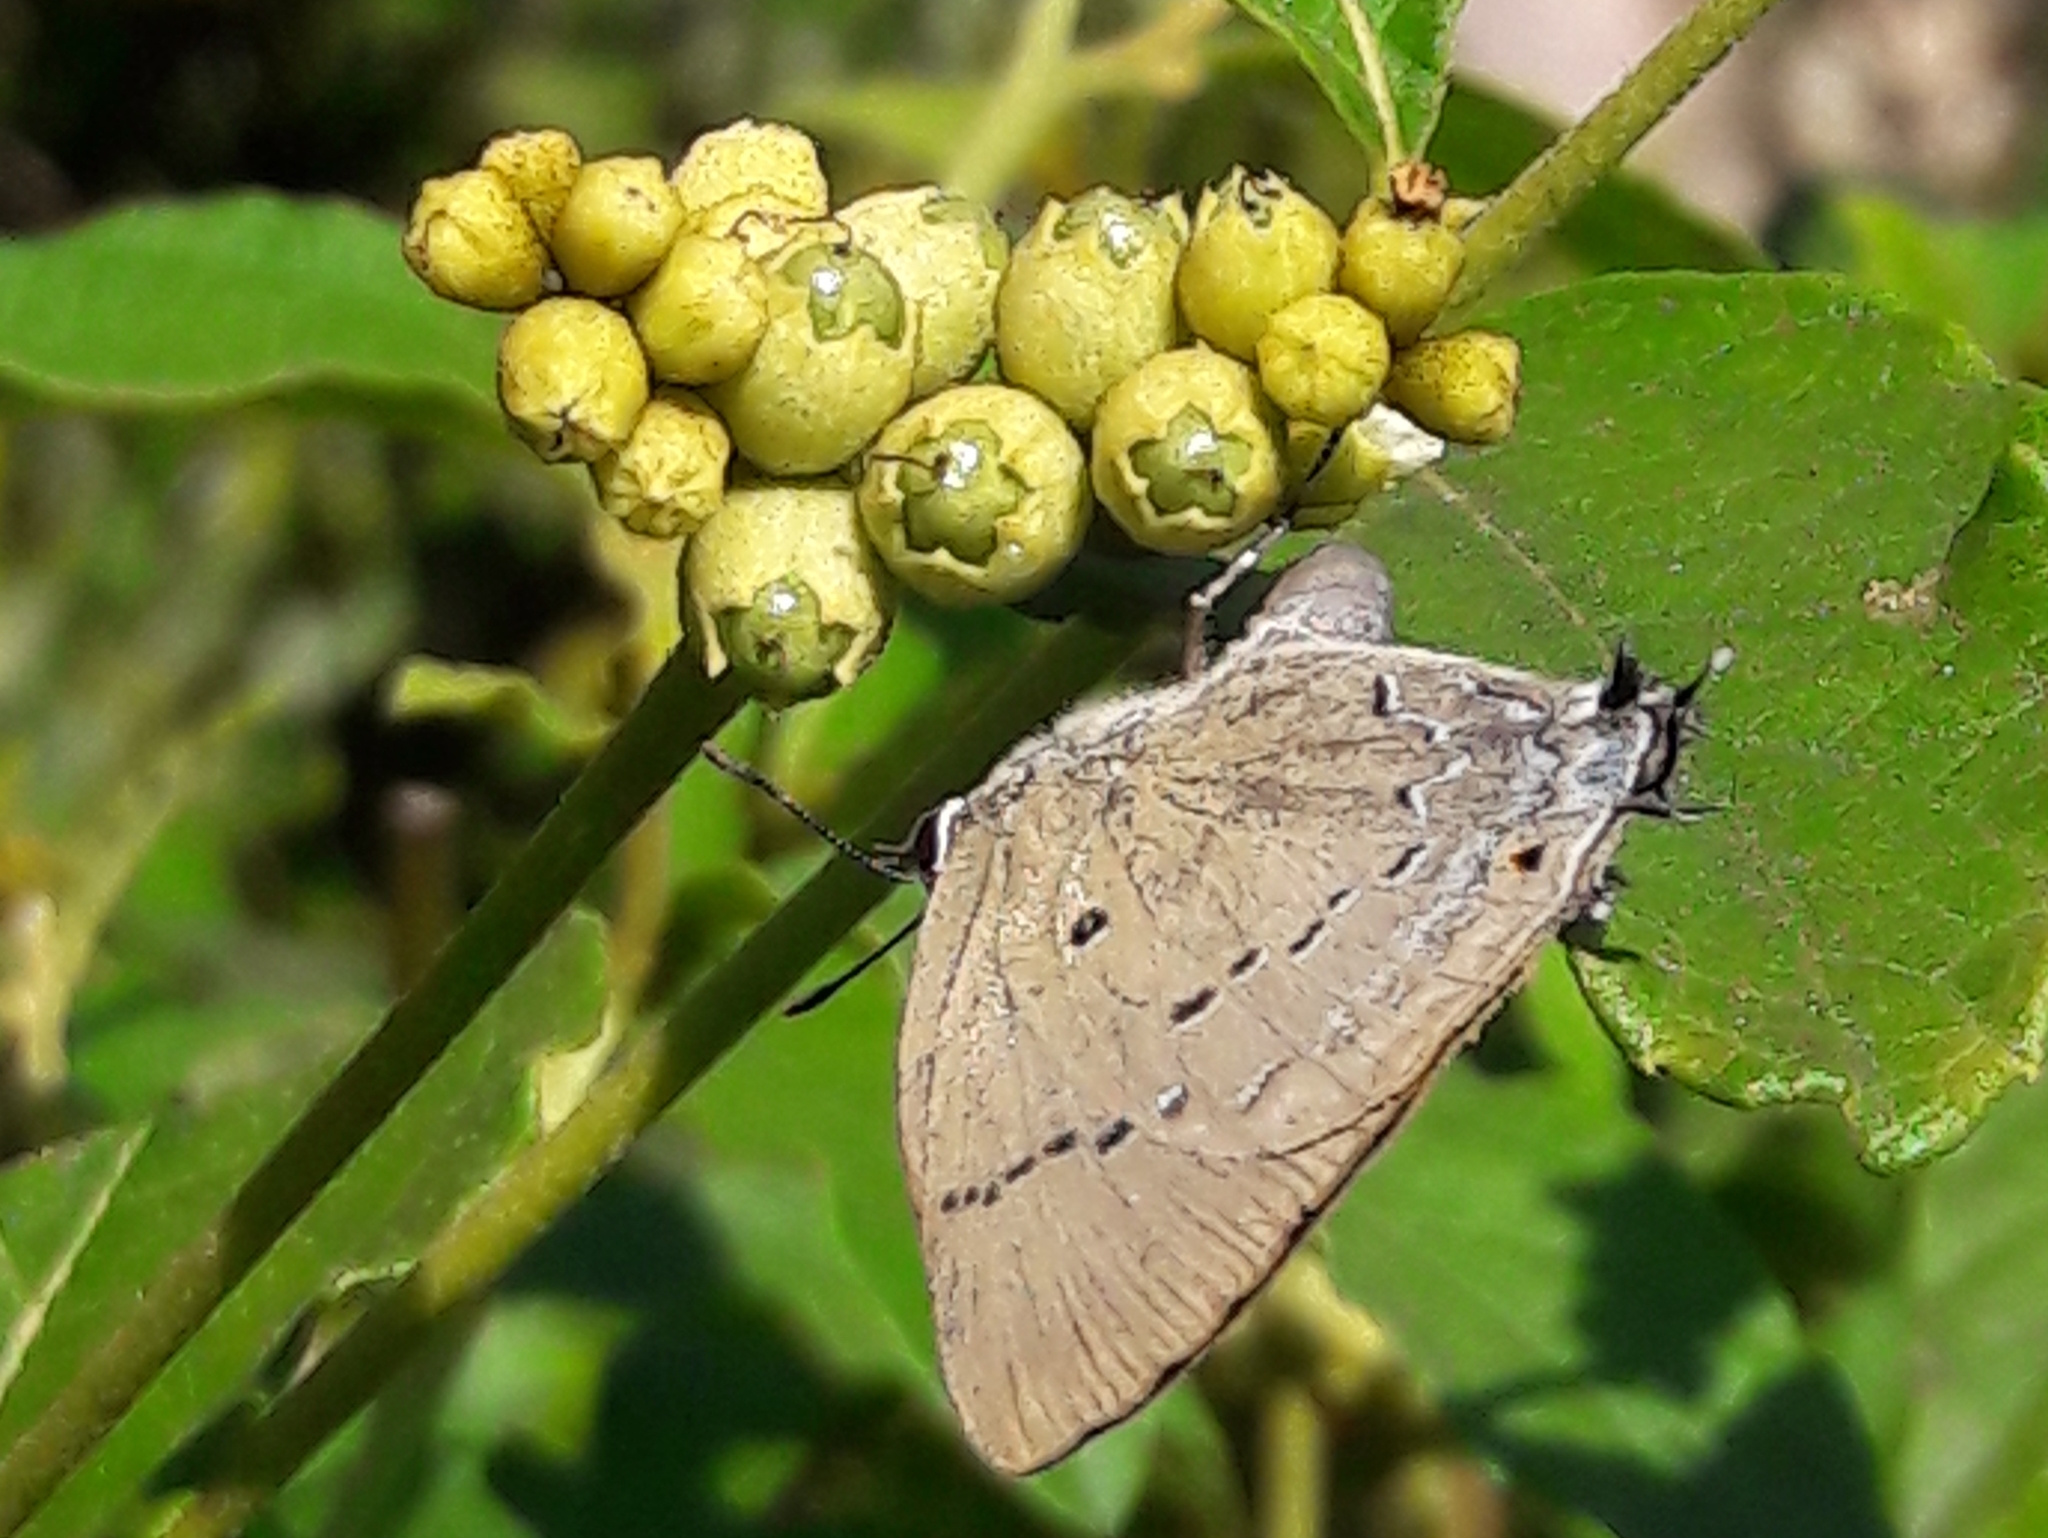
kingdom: Animalia
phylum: Arthropoda
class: Insecta
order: Lepidoptera
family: Lycaenidae
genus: Parrhasius
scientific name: Parrhasius polibetes
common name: Black-spot hairstreak
